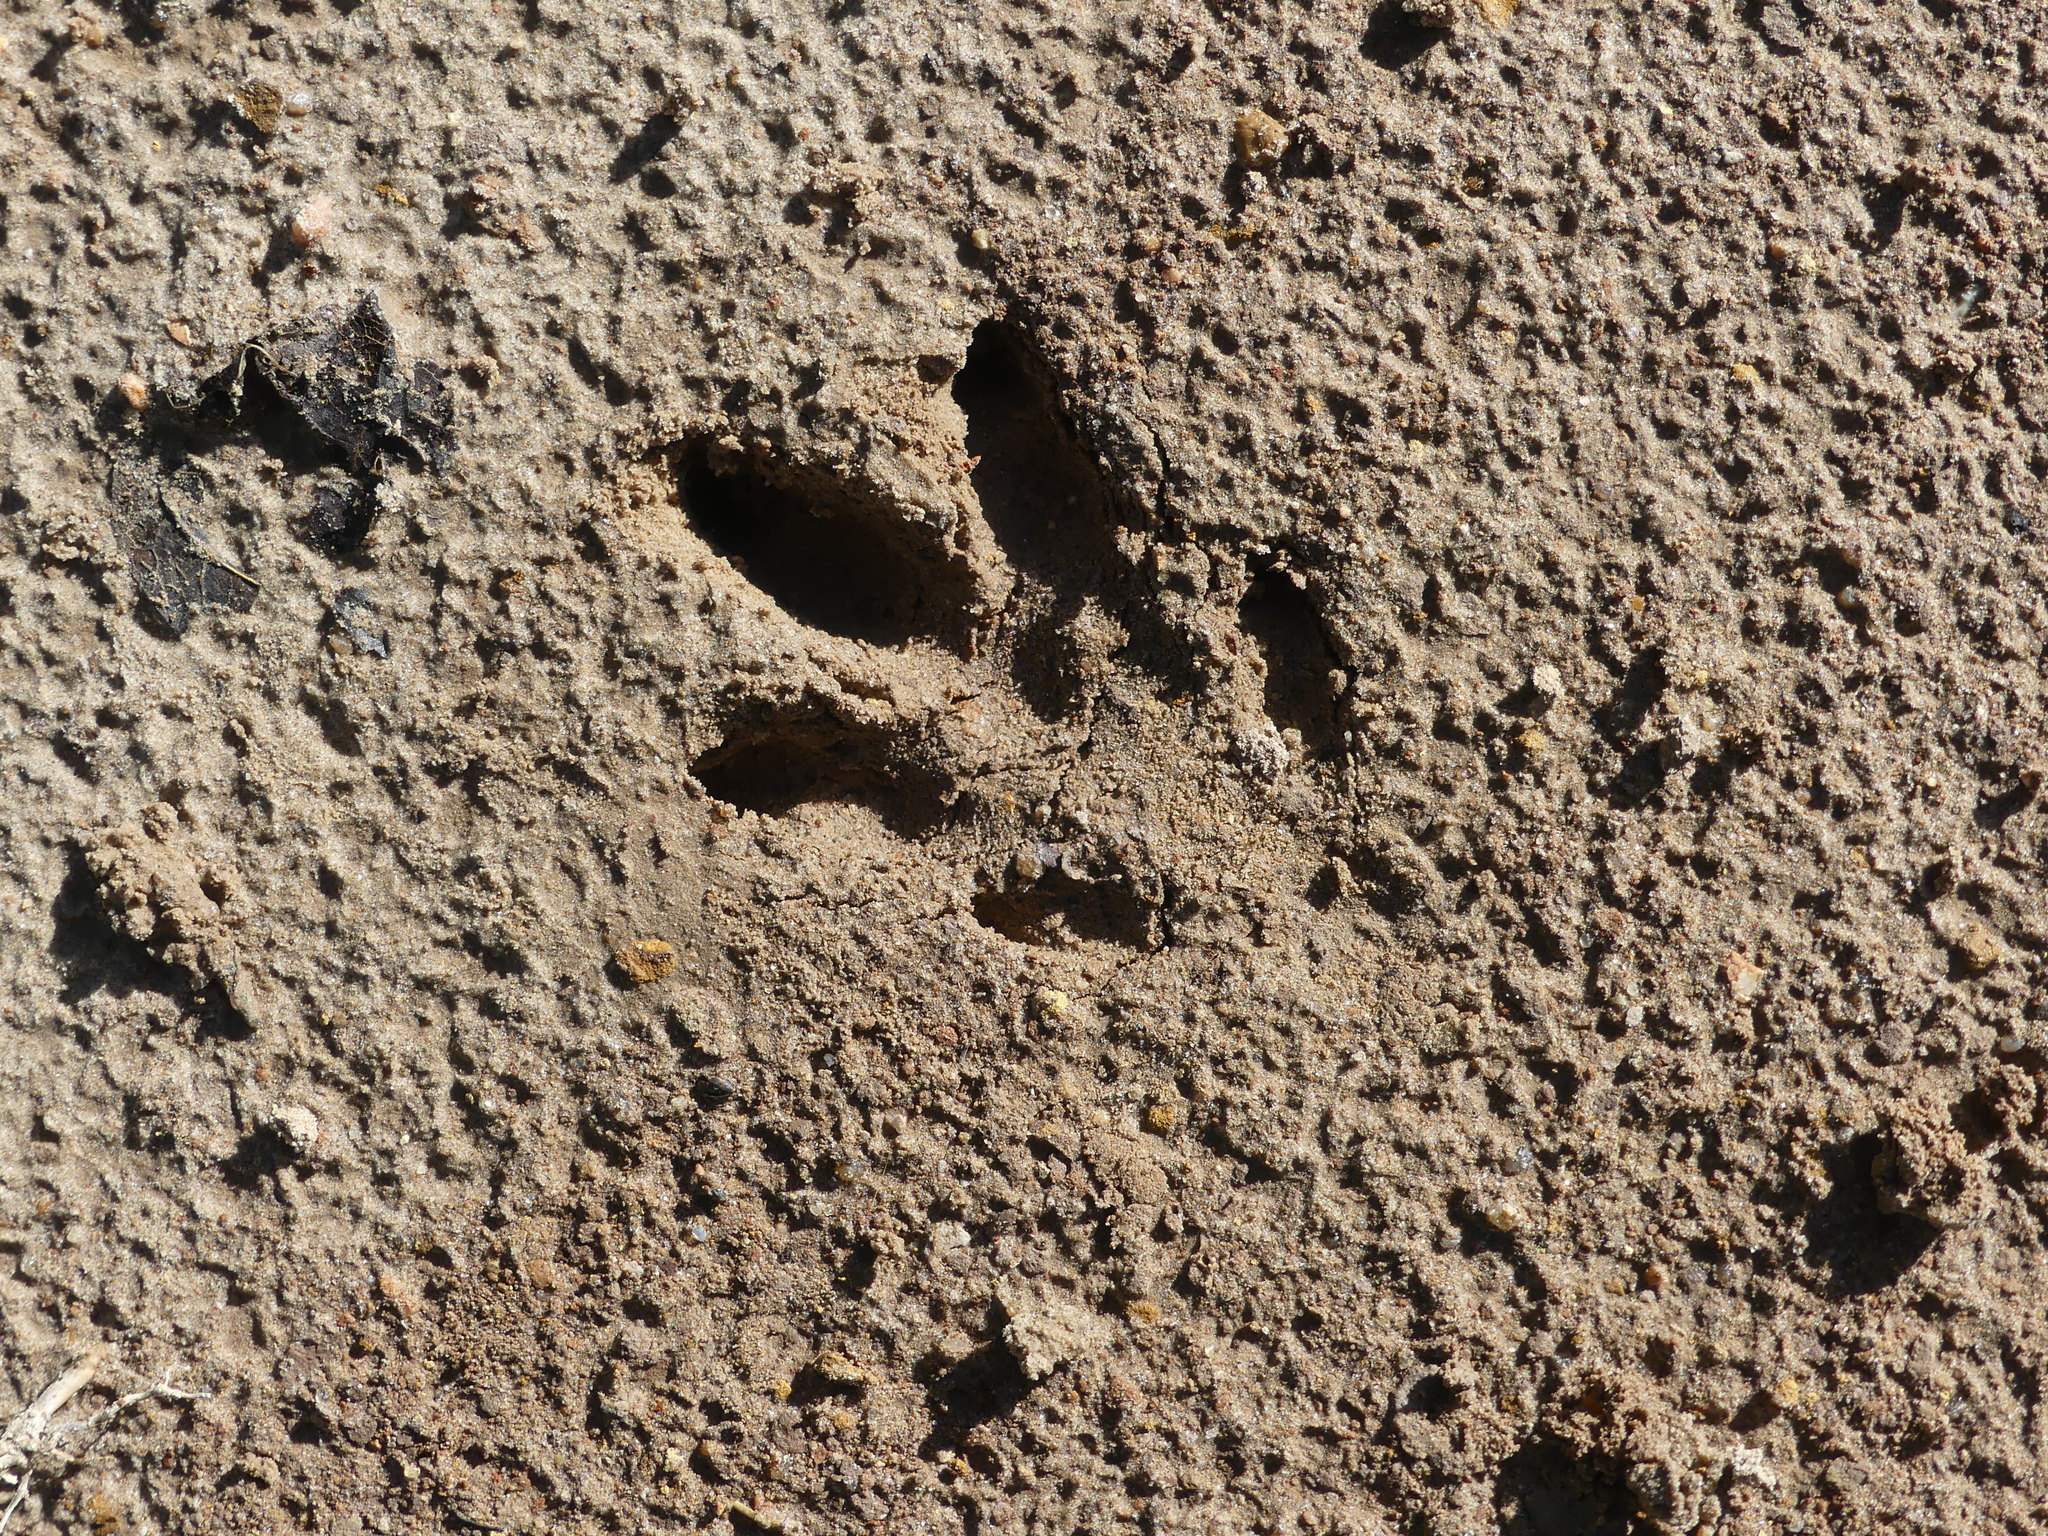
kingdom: Animalia
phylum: Chordata
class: Mammalia
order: Cingulata
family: Dasypodidae
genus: Dasypus
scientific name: Dasypus novemcinctus
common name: Nine-banded armadillo
